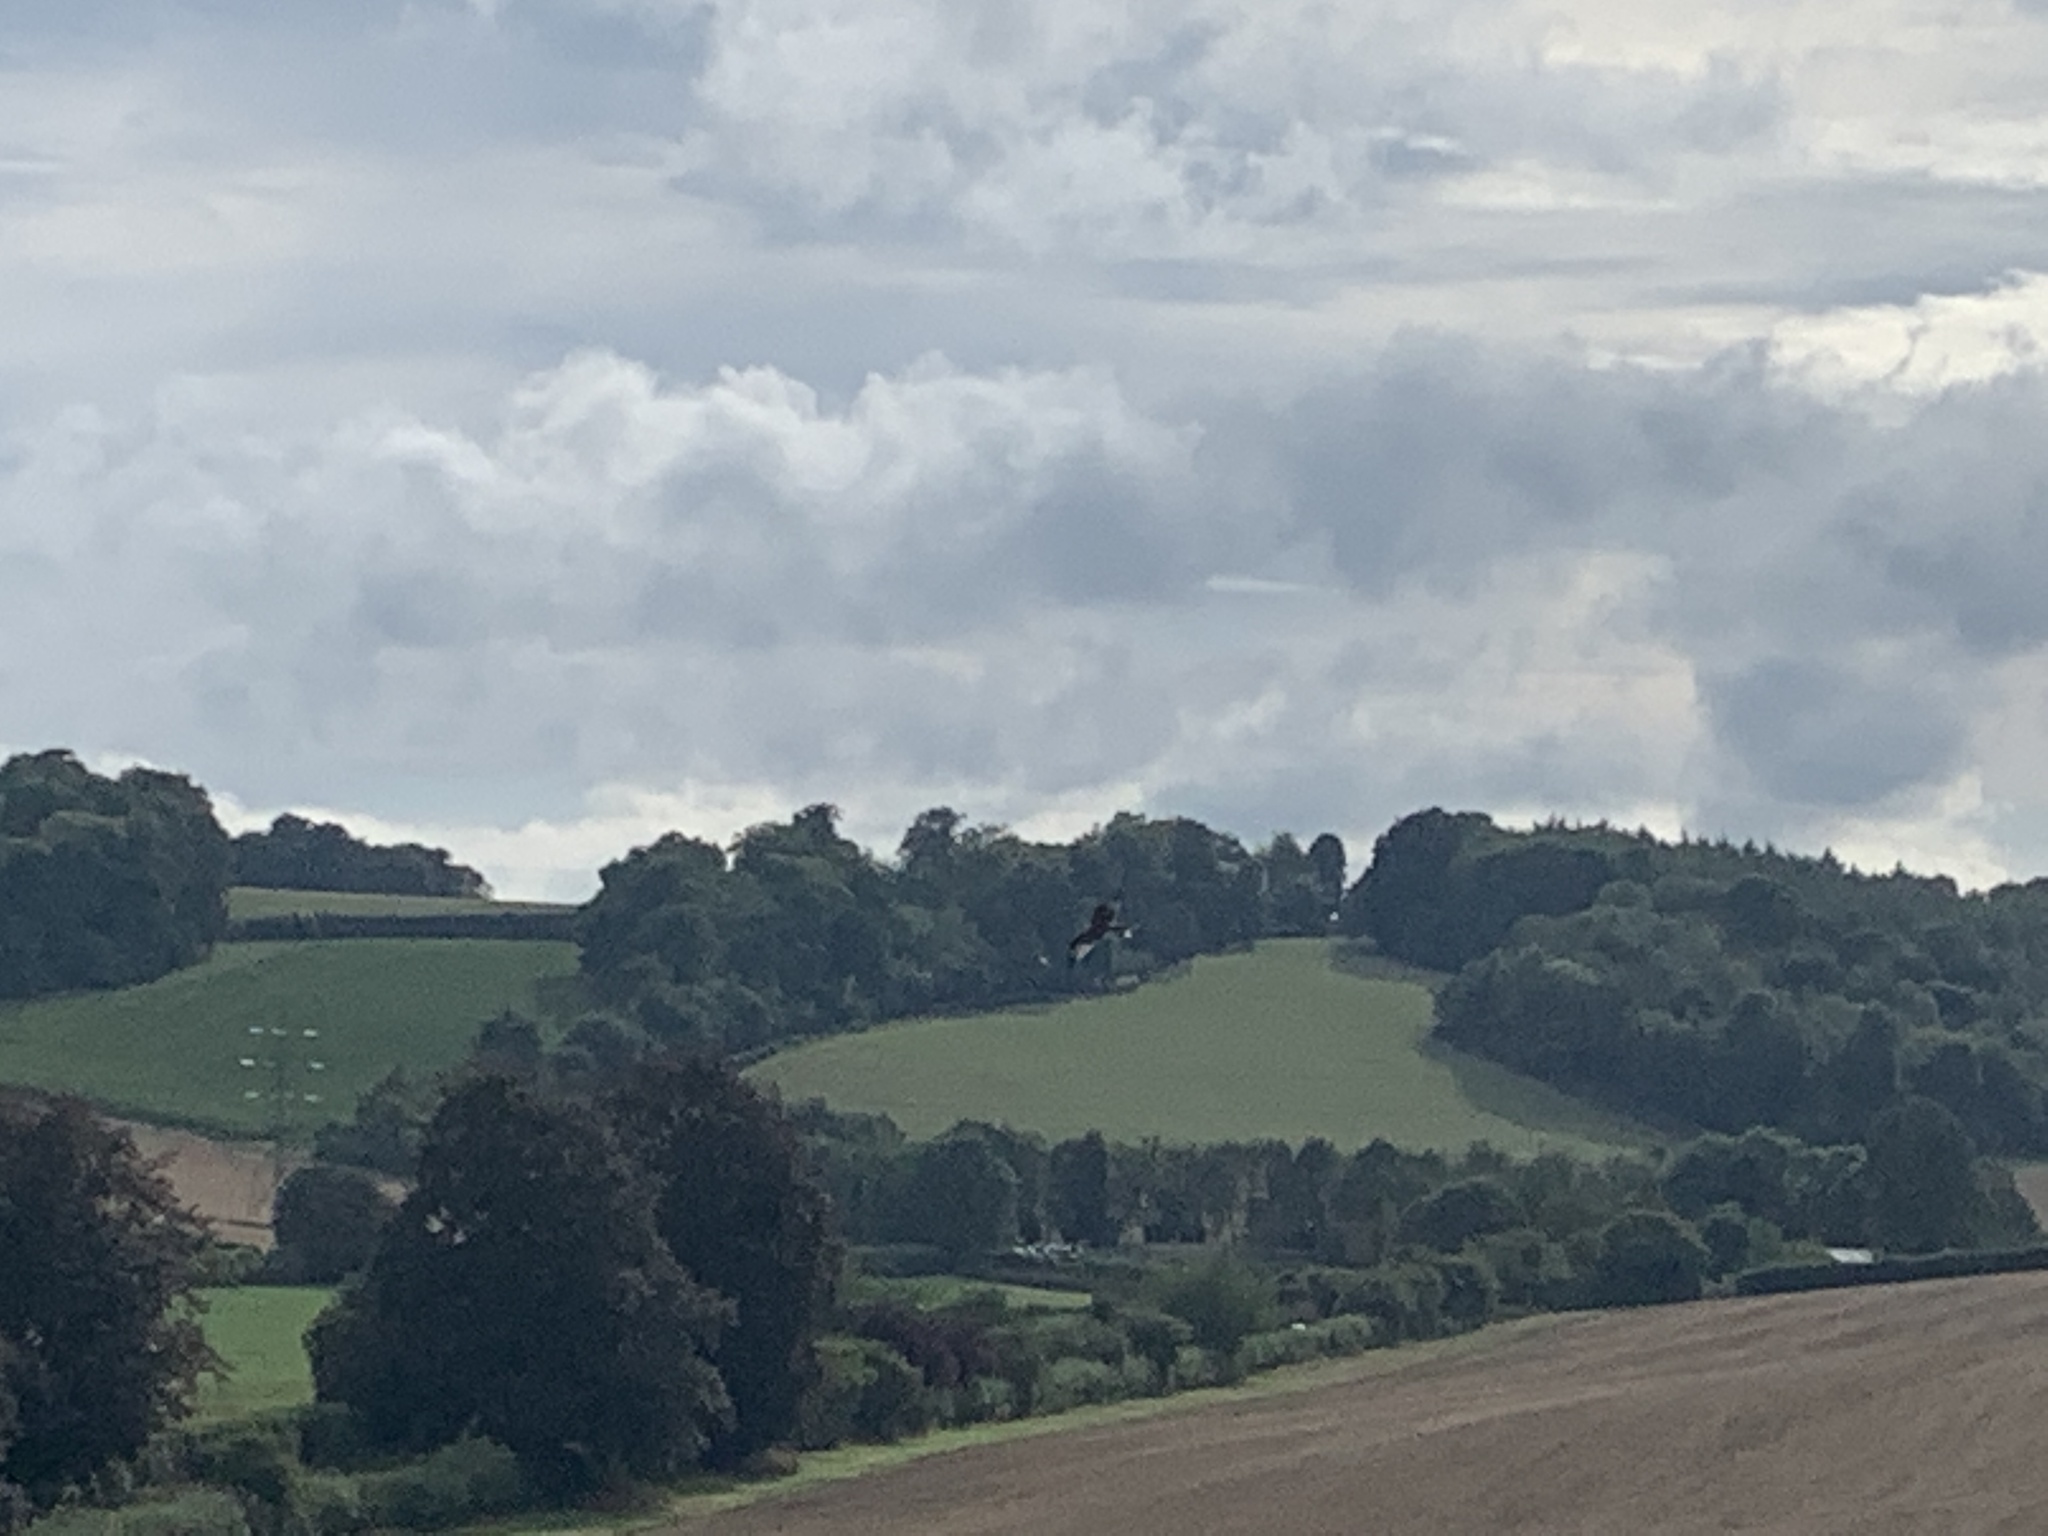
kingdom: Animalia
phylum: Chordata
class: Aves
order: Accipitriformes
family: Accipitridae
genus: Milvus
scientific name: Milvus milvus
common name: Red kite
